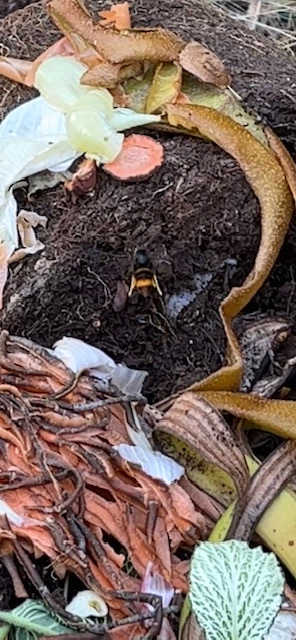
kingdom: Animalia
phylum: Arthropoda
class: Insecta
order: Hymenoptera
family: Vespidae
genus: Vespa
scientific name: Vespa velutina
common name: Asian hornet
